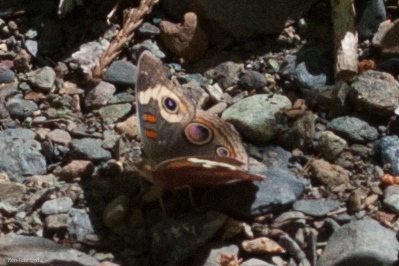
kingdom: Animalia
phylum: Arthropoda
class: Insecta
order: Lepidoptera
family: Nymphalidae
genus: Junonia
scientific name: Junonia grisea
